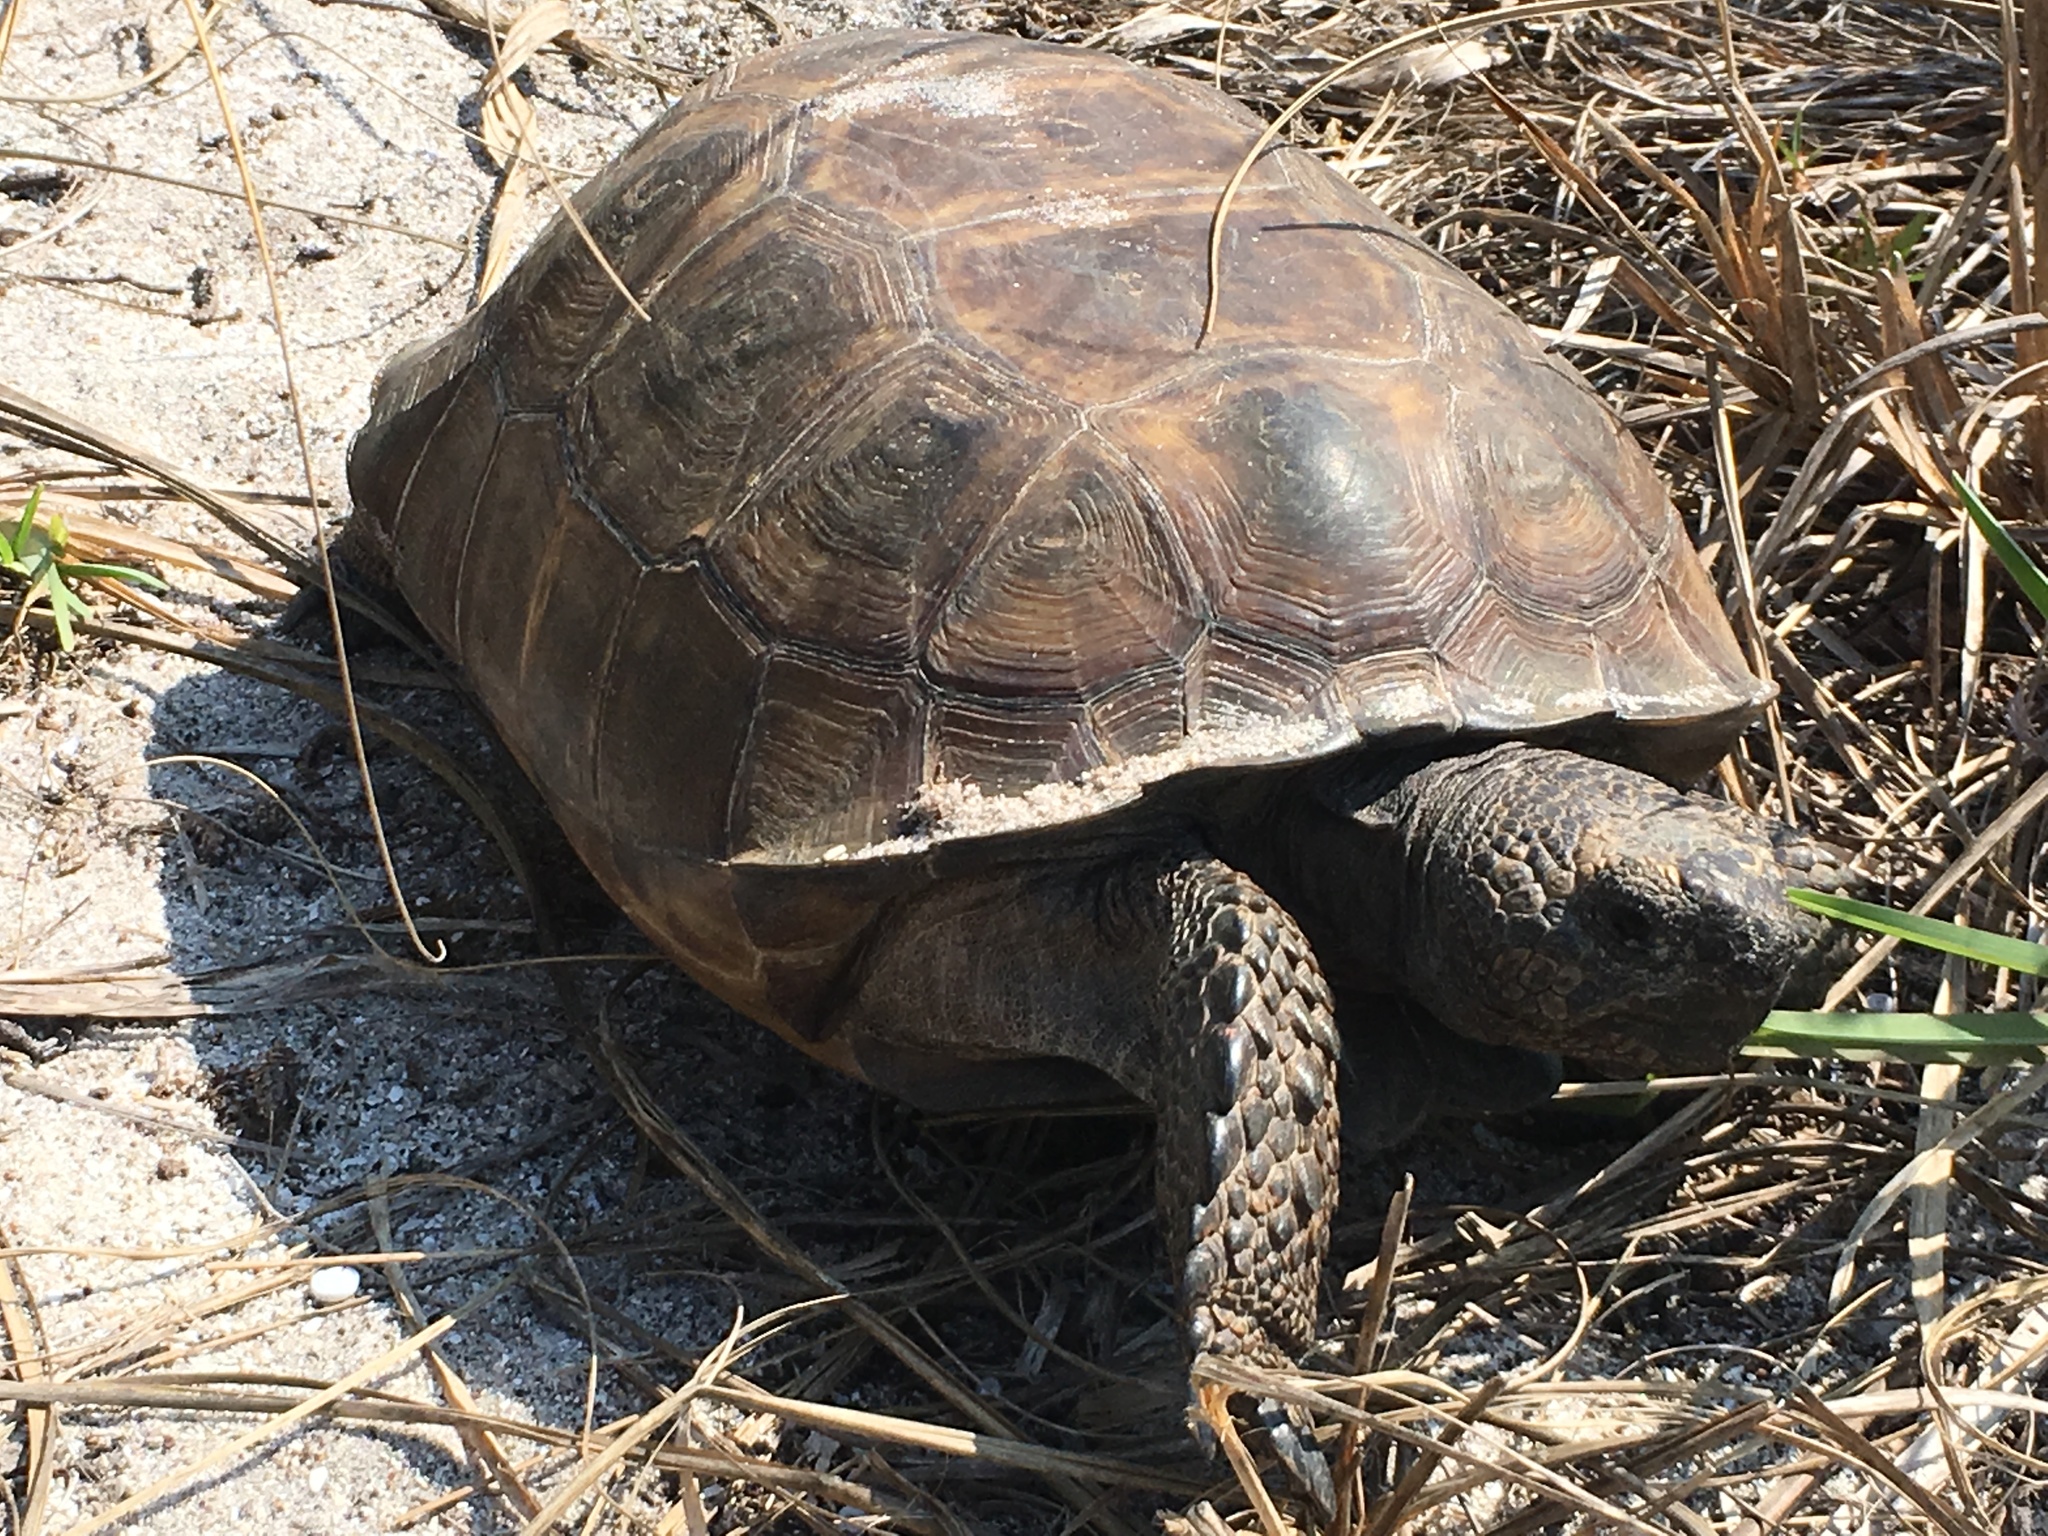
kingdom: Animalia
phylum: Chordata
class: Testudines
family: Testudinidae
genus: Gopherus
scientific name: Gopherus polyphemus
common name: Florida gopher tortoise
